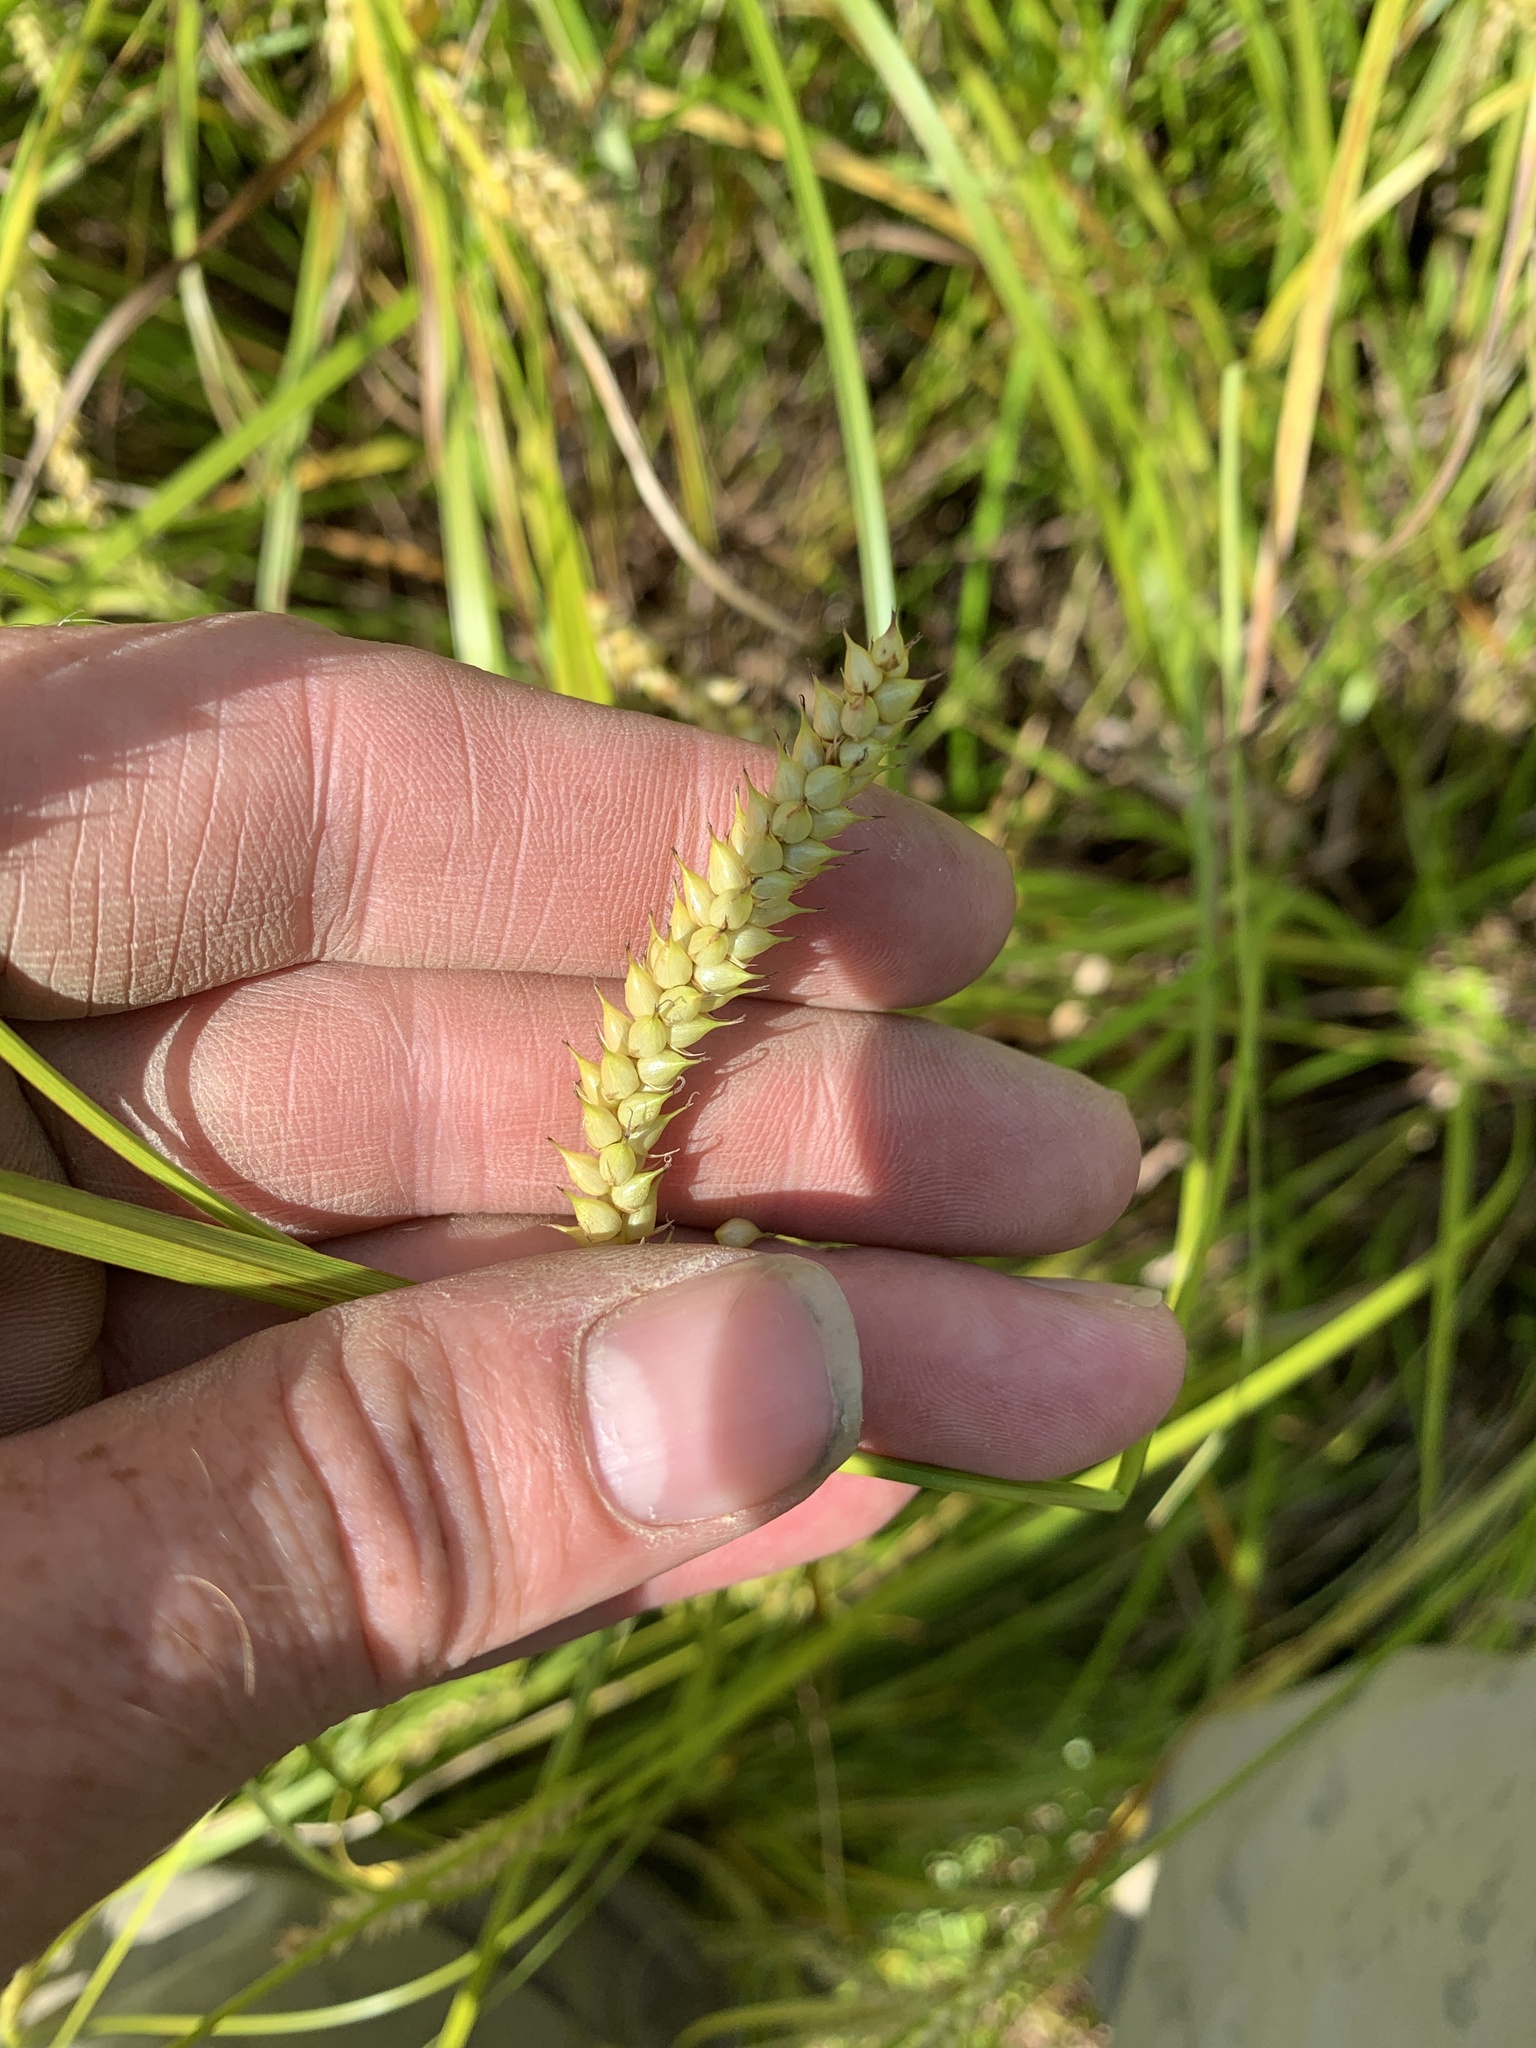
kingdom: Plantae
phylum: Tracheophyta
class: Liliopsida
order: Poales
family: Cyperaceae
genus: Carex
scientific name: Carex vesicaria
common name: Bladder-sedge
